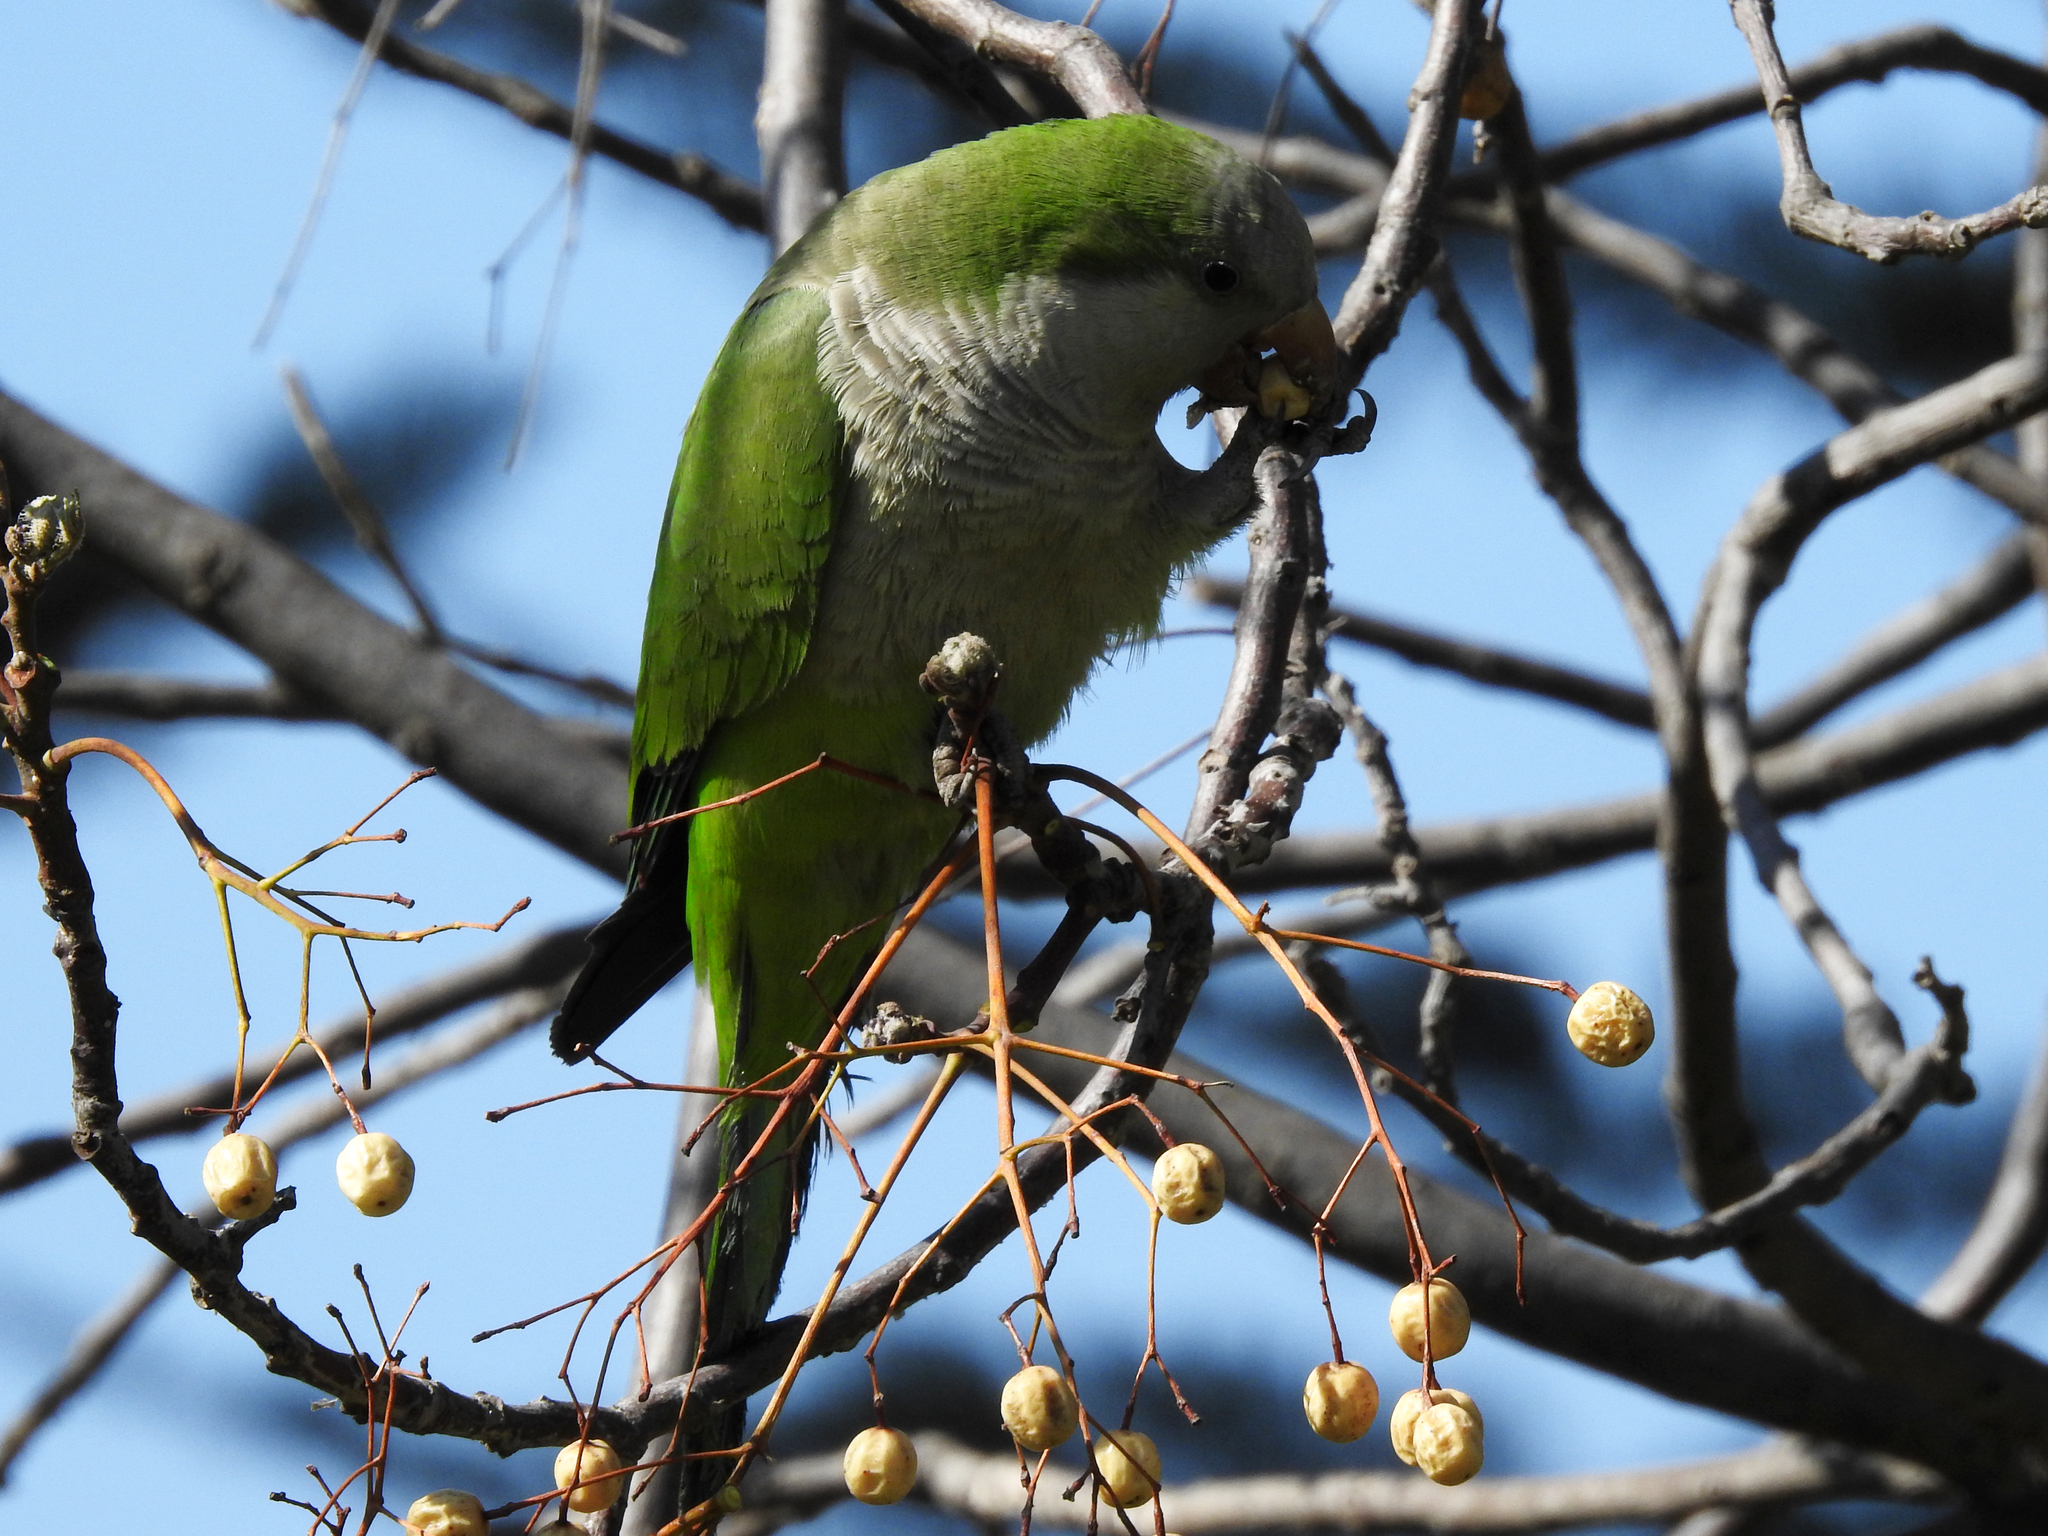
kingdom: Animalia
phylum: Chordata
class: Aves
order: Psittaciformes
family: Psittacidae
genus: Myiopsitta
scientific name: Myiopsitta monachus
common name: Monk parakeet
